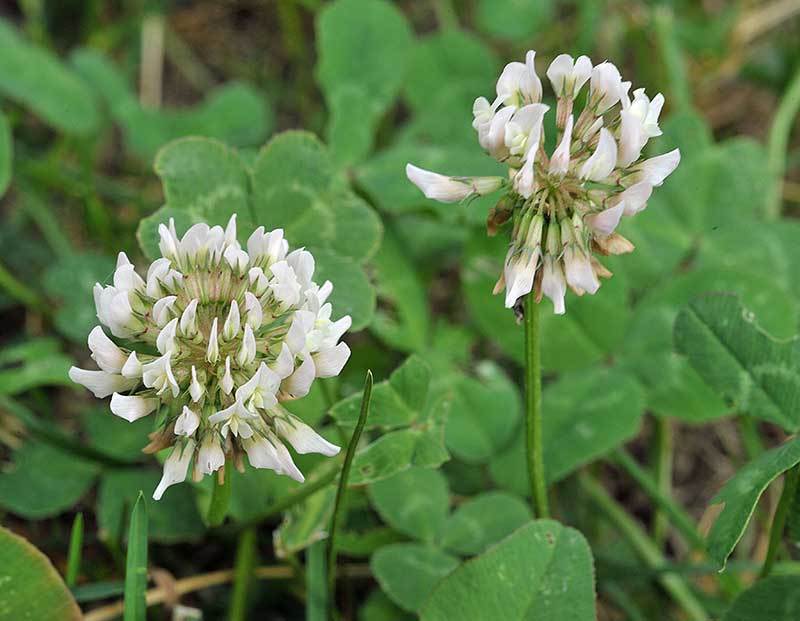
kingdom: Plantae
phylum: Tracheophyta
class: Magnoliopsida
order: Fabales
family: Fabaceae
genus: Trifolium
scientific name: Trifolium repens
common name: White clover
